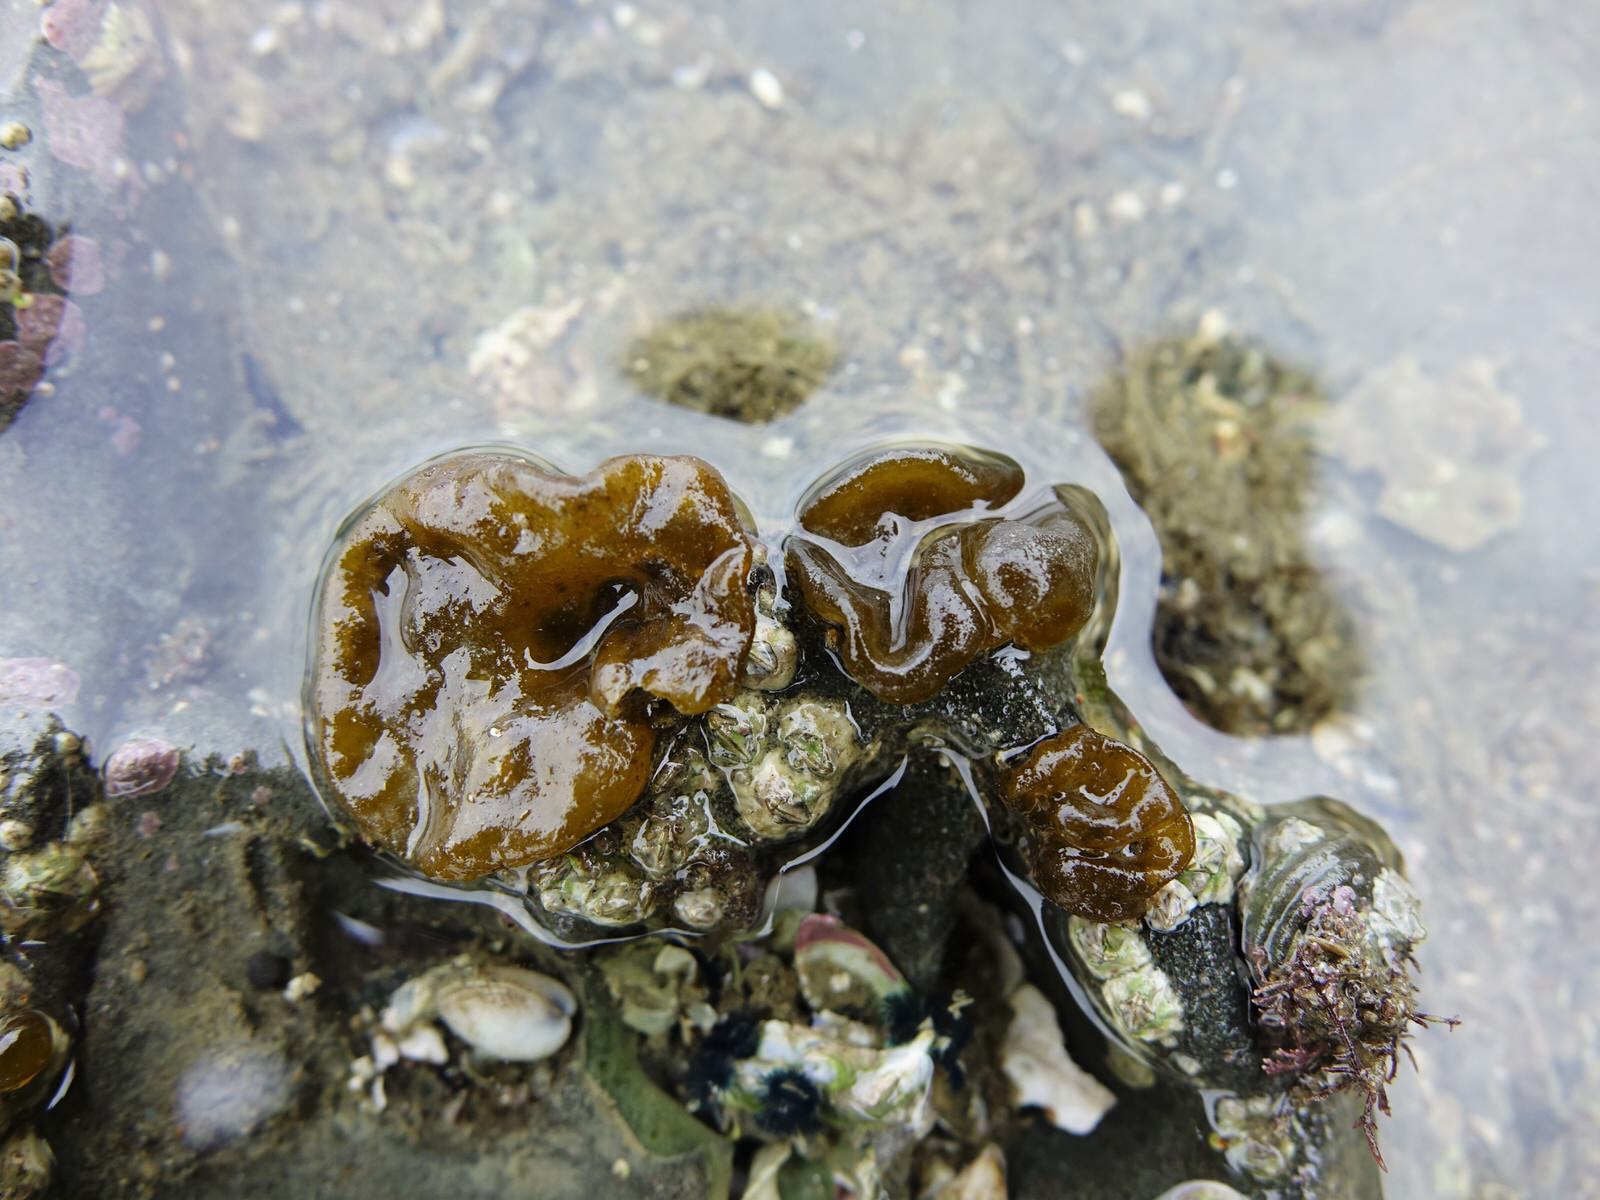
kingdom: Chromista
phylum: Ochrophyta
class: Phaeophyceae
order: Scytosiphonales
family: Scytosiphonaceae
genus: Colpomenia
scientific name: Colpomenia sinuosa
